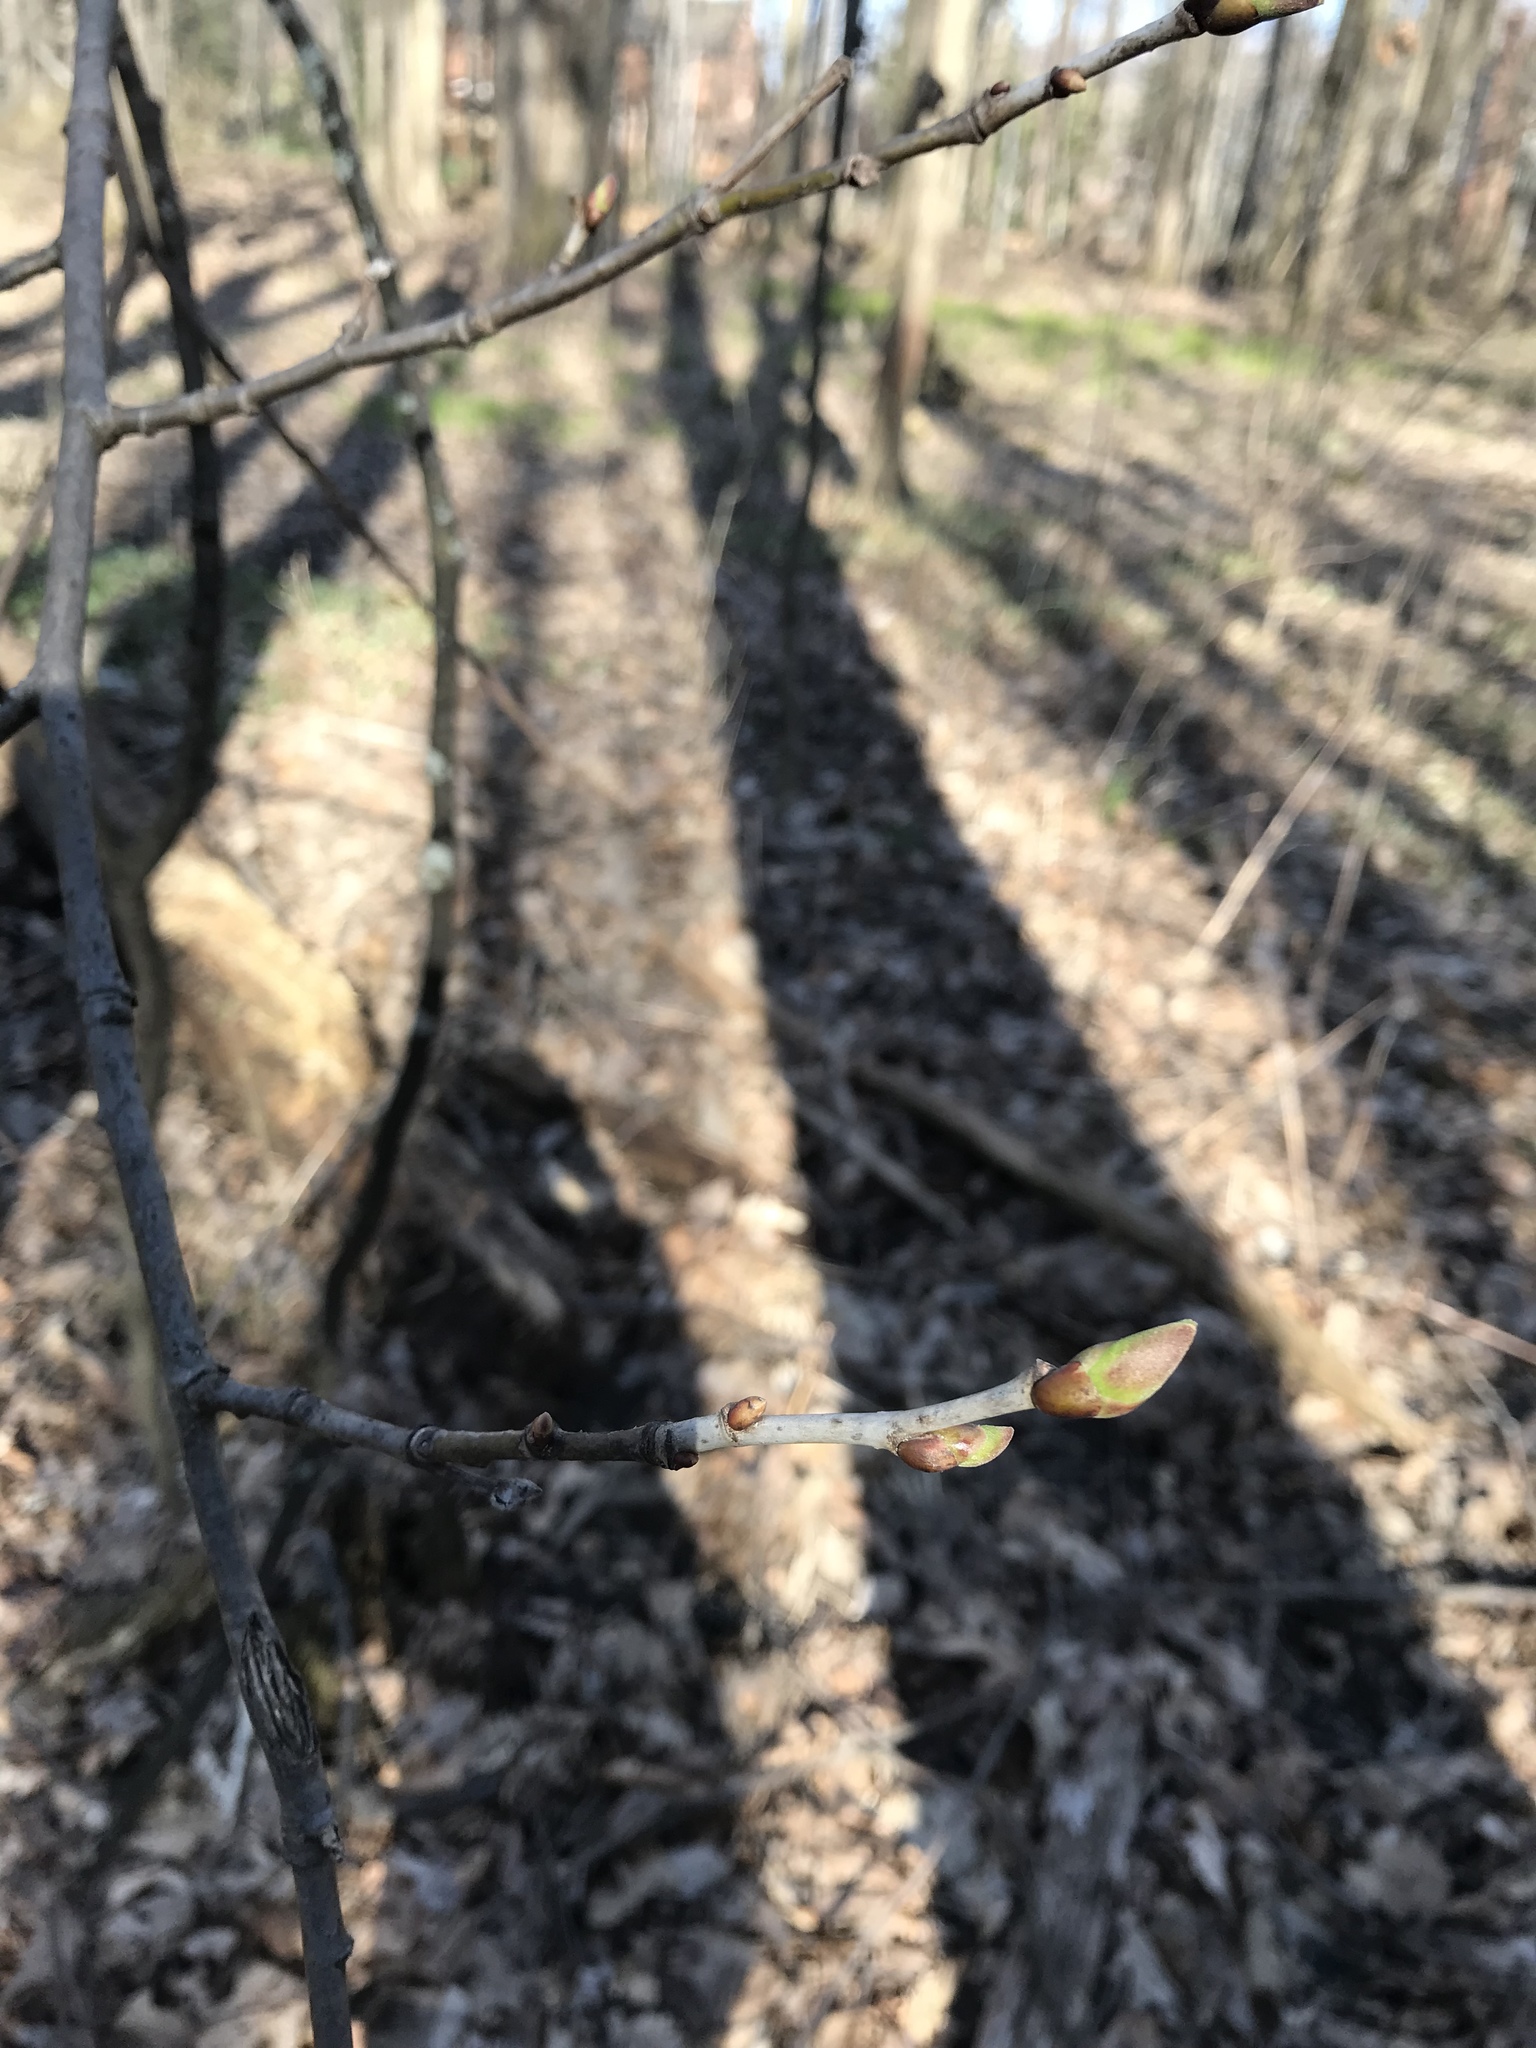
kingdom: Plantae
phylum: Tracheophyta
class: Magnoliopsida
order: Magnoliales
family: Magnoliaceae
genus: Liriodendron
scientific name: Liriodendron tulipifera
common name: Tulip tree
